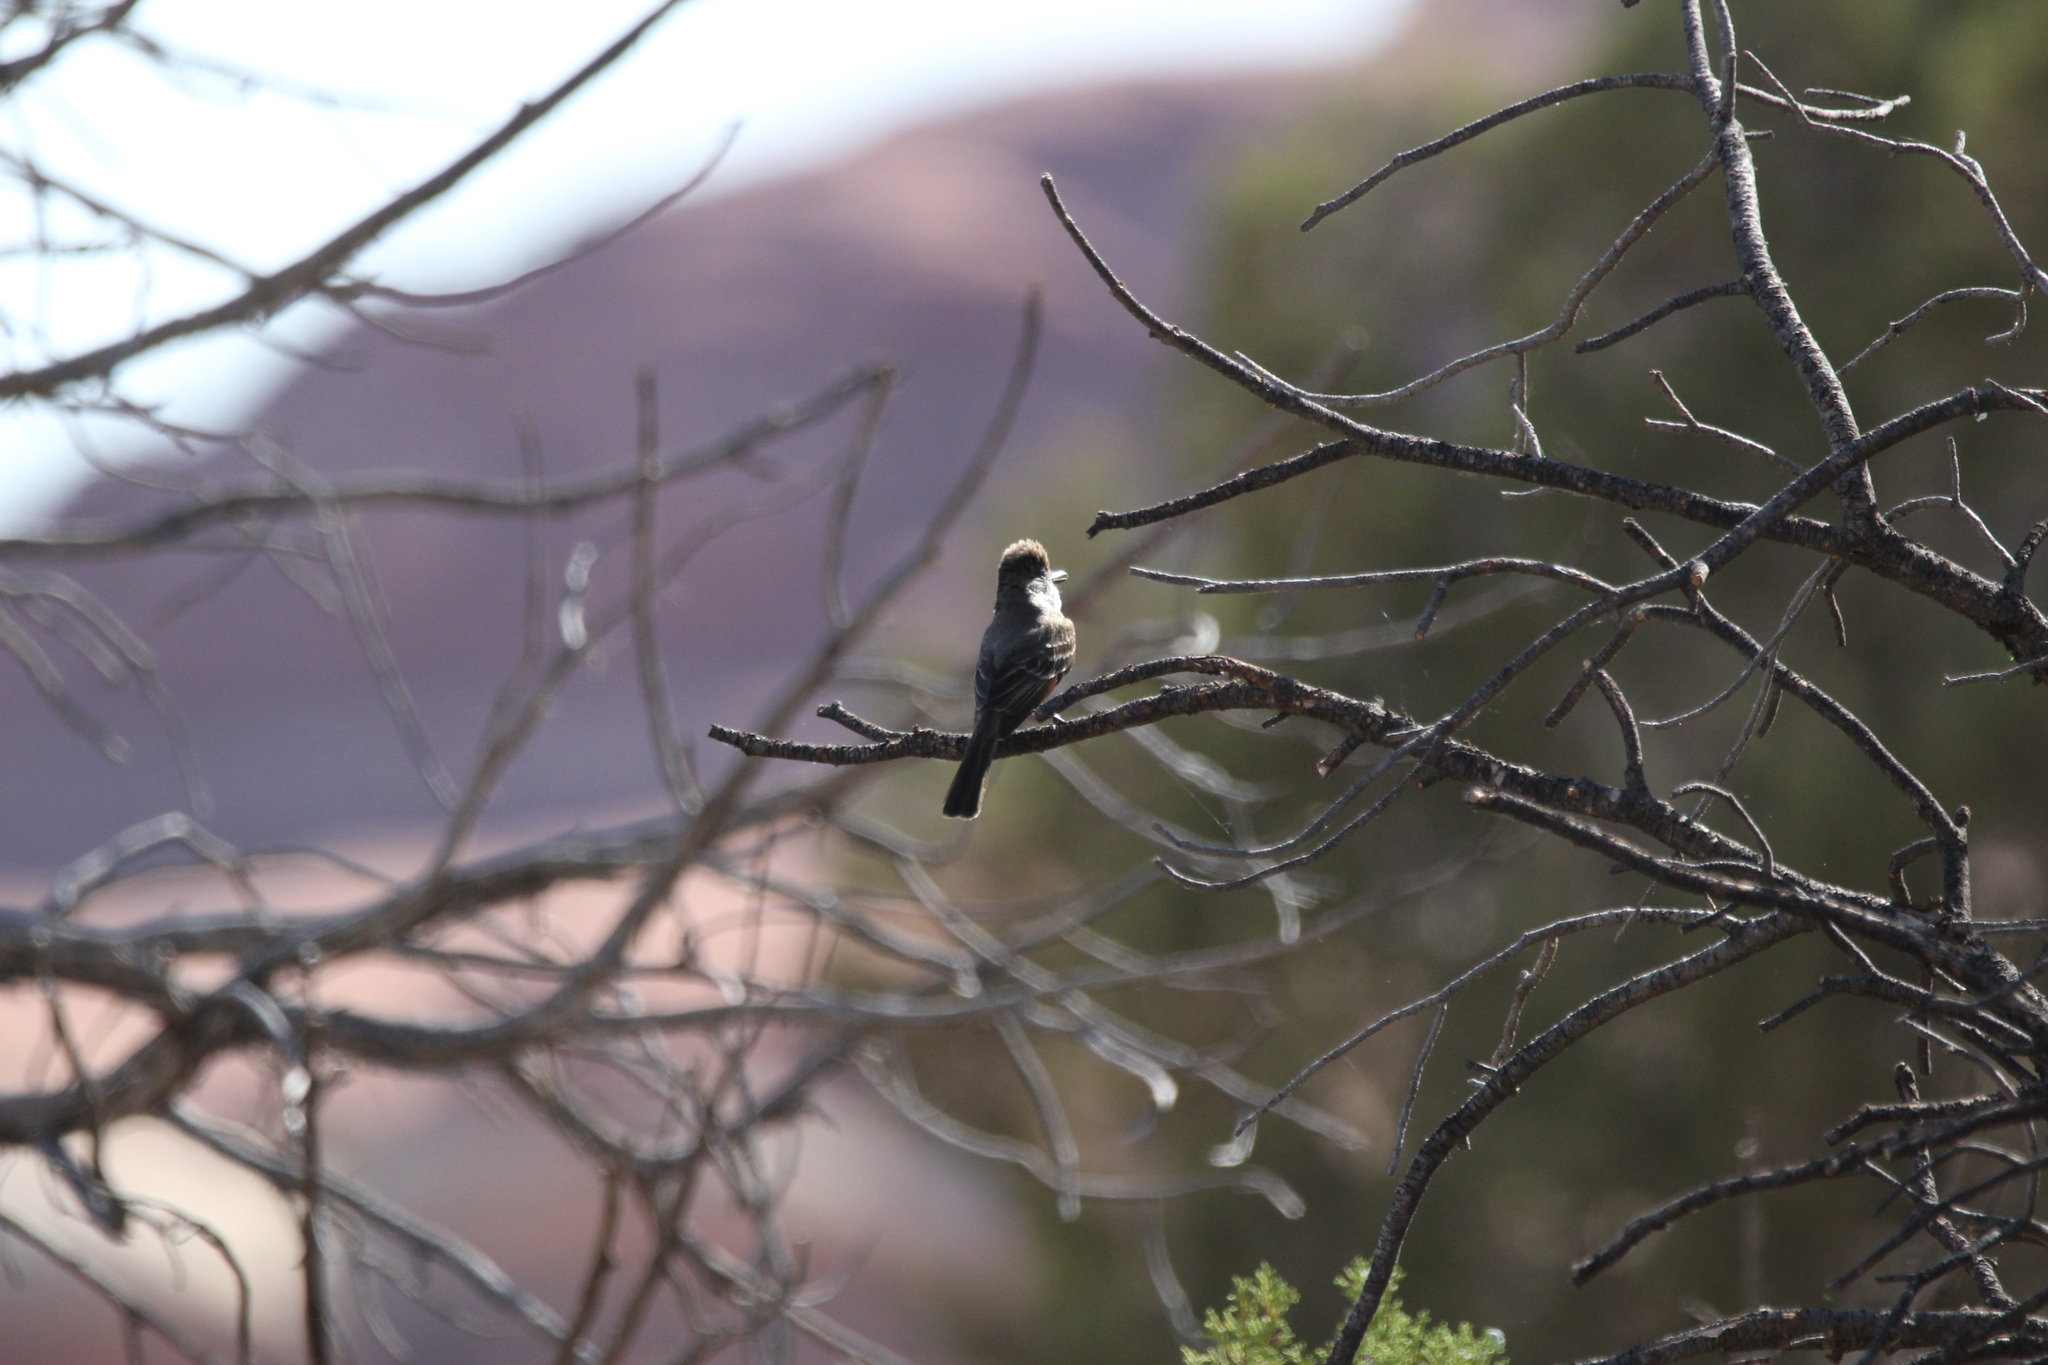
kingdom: Animalia
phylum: Chordata
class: Aves
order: Passeriformes
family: Tyrannidae
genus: Myiarchus
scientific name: Myiarchus cinerascens
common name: Ash-throated flycatcher
